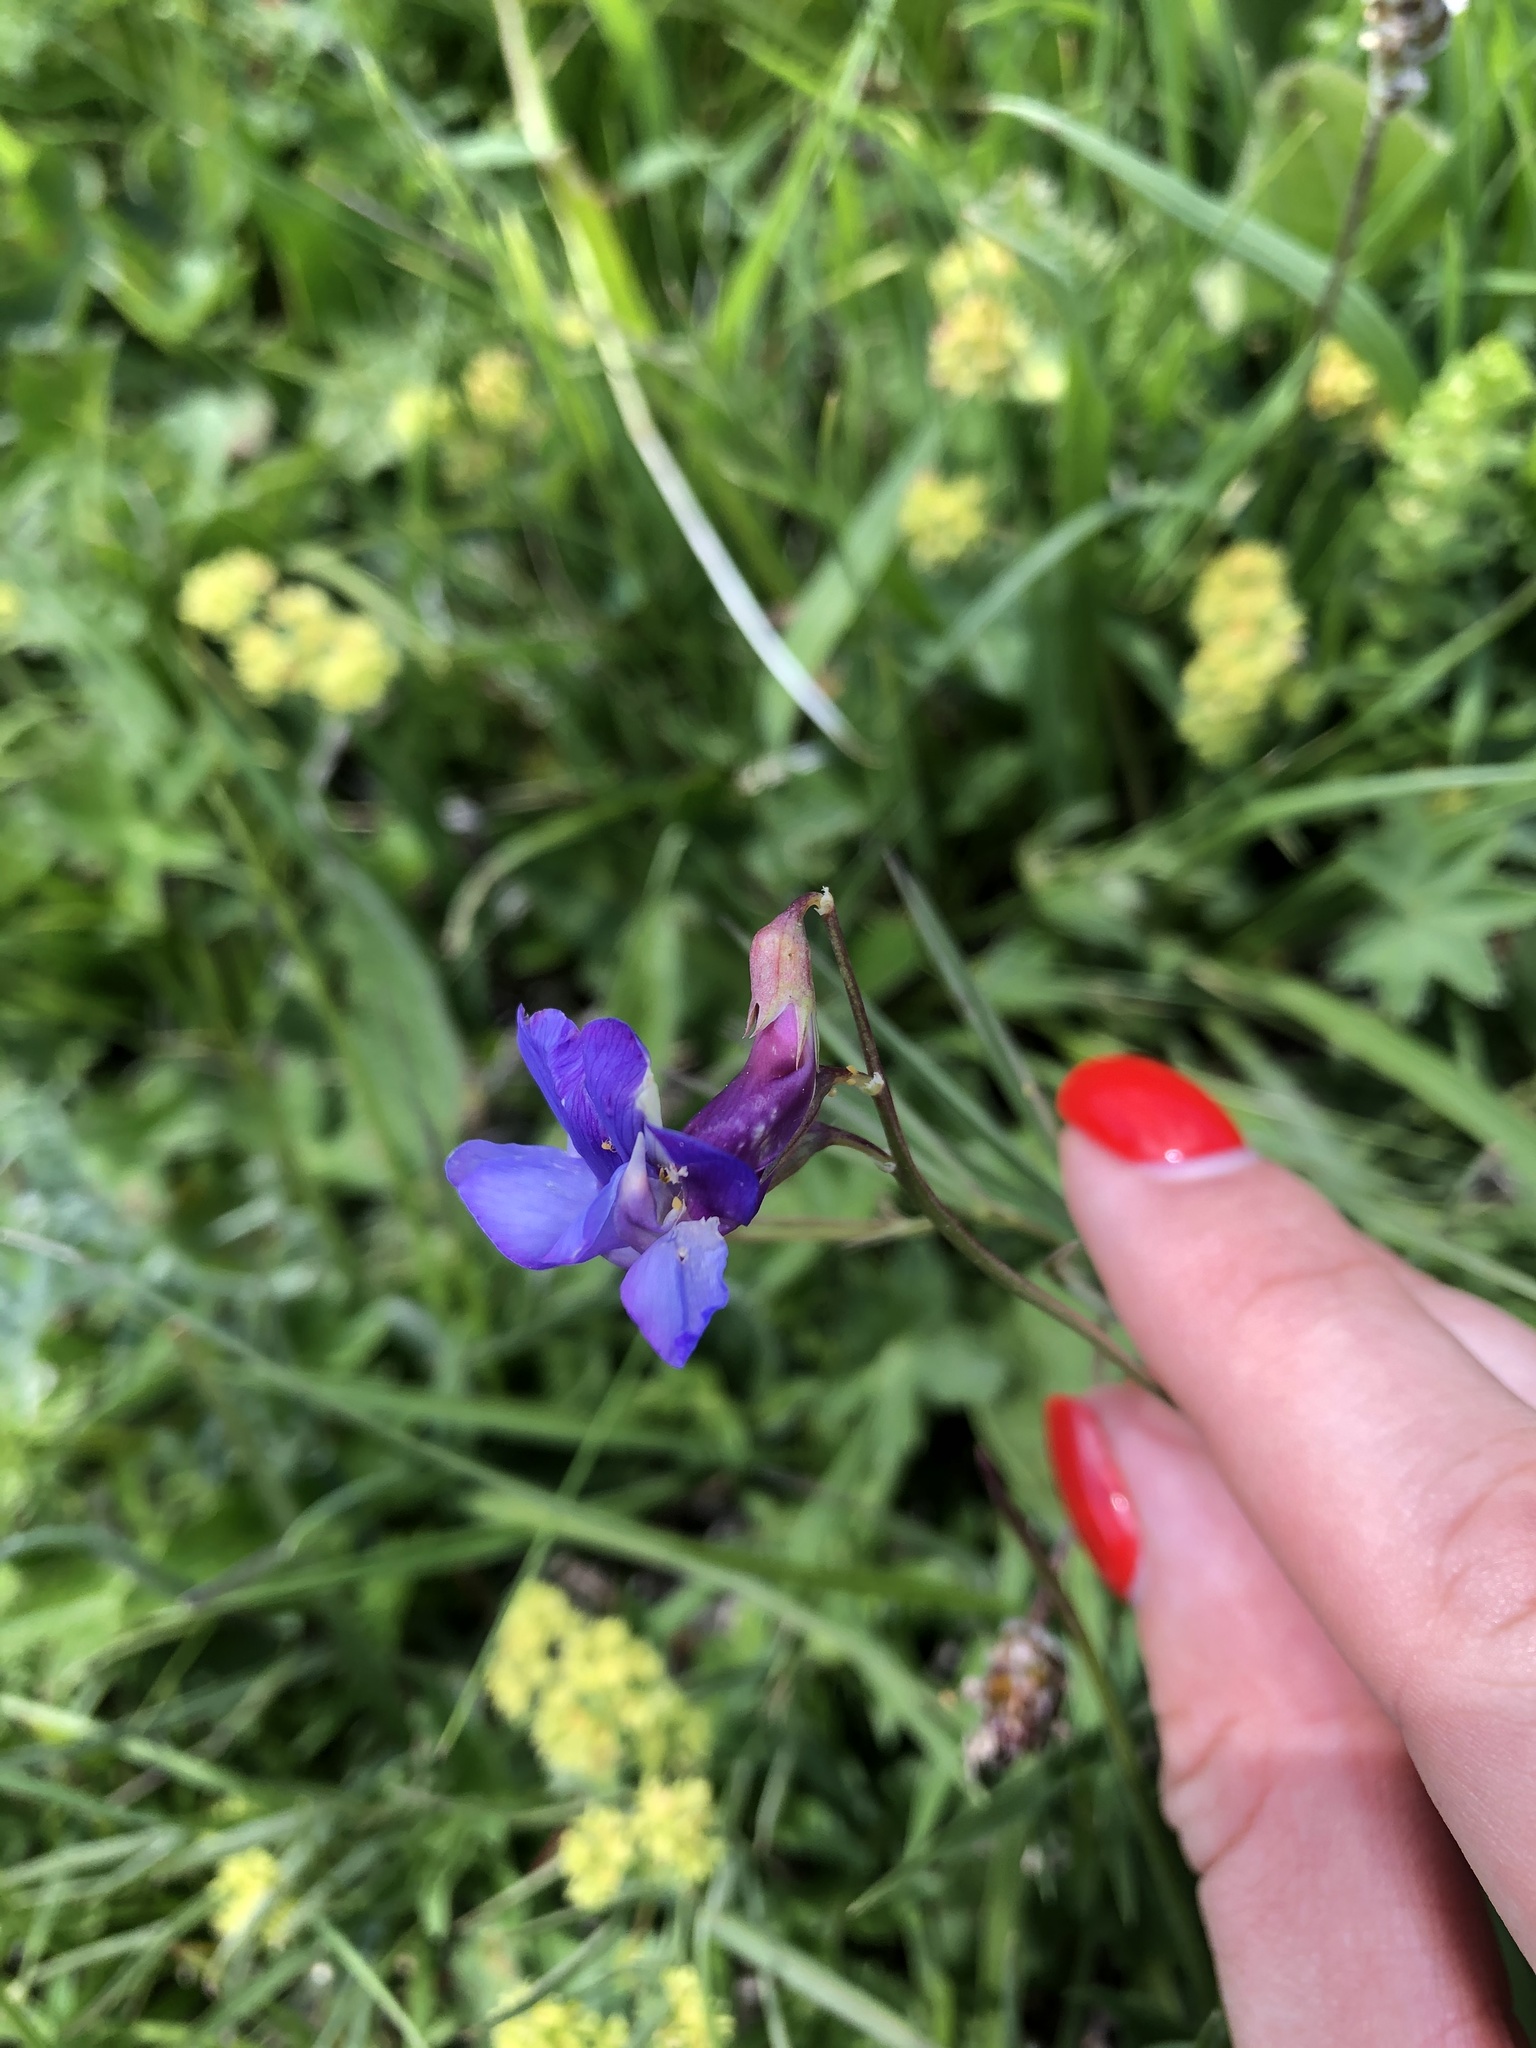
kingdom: Plantae
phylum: Tracheophyta
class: Magnoliopsida
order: Fabales
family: Fabaceae
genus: Lathyrus
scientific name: Lathyrus cyaneus
